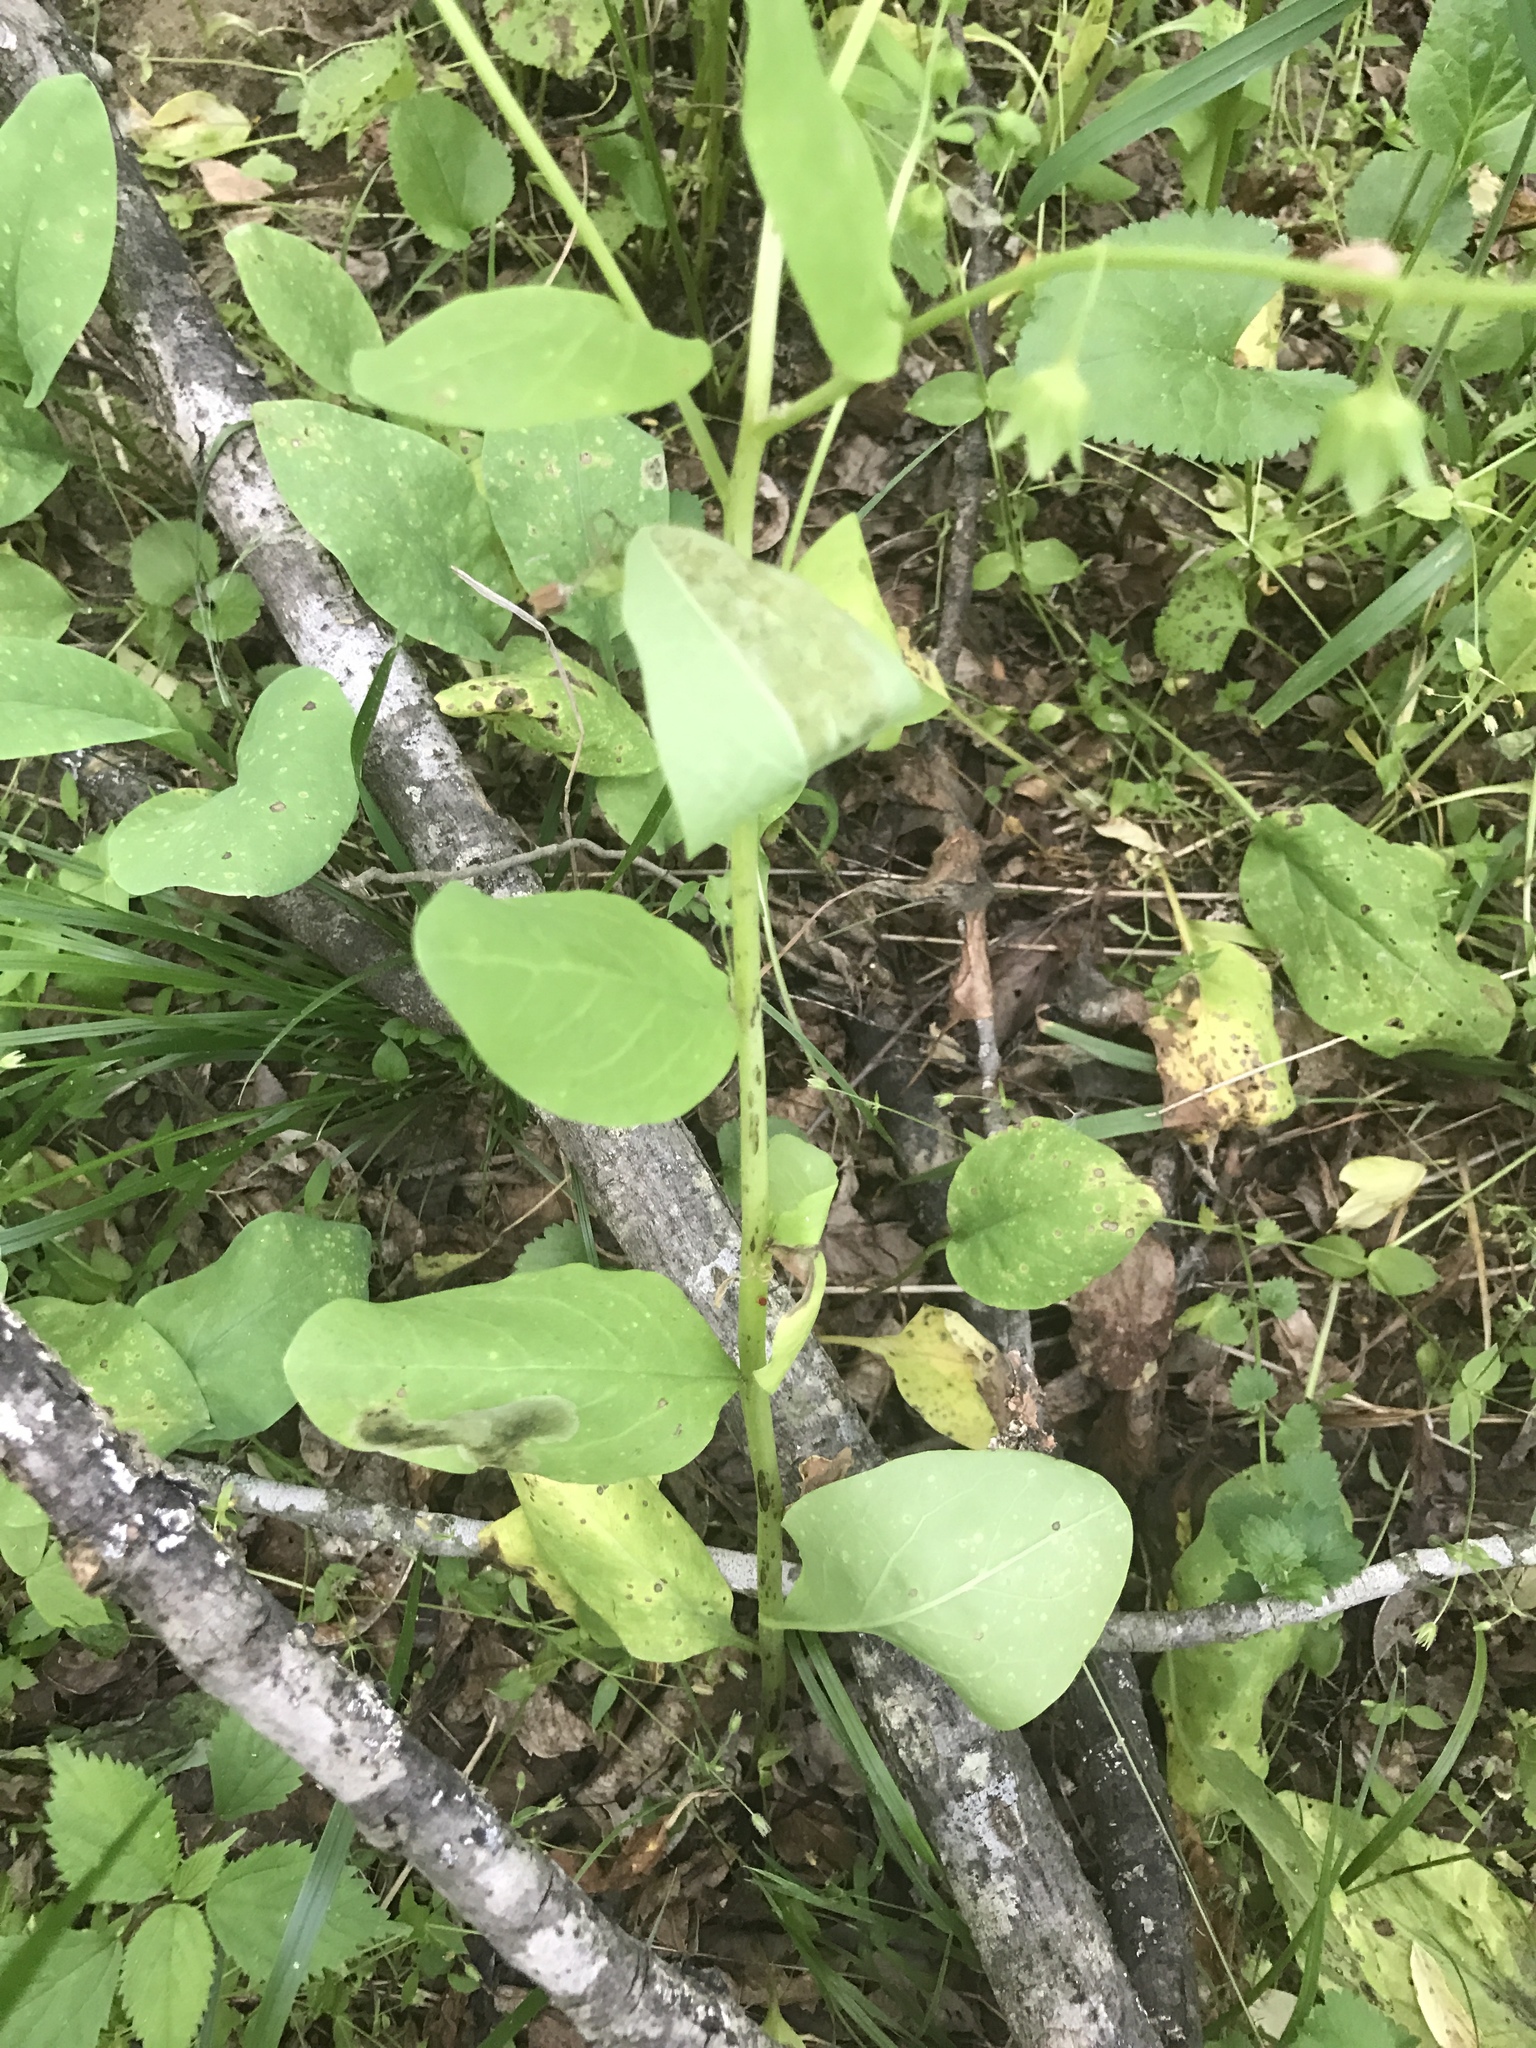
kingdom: Plantae
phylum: Tracheophyta
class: Magnoliopsida
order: Boraginales
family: Boraginaceae
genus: Mertensia
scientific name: Mertensia virginica
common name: Virginia bluebells
